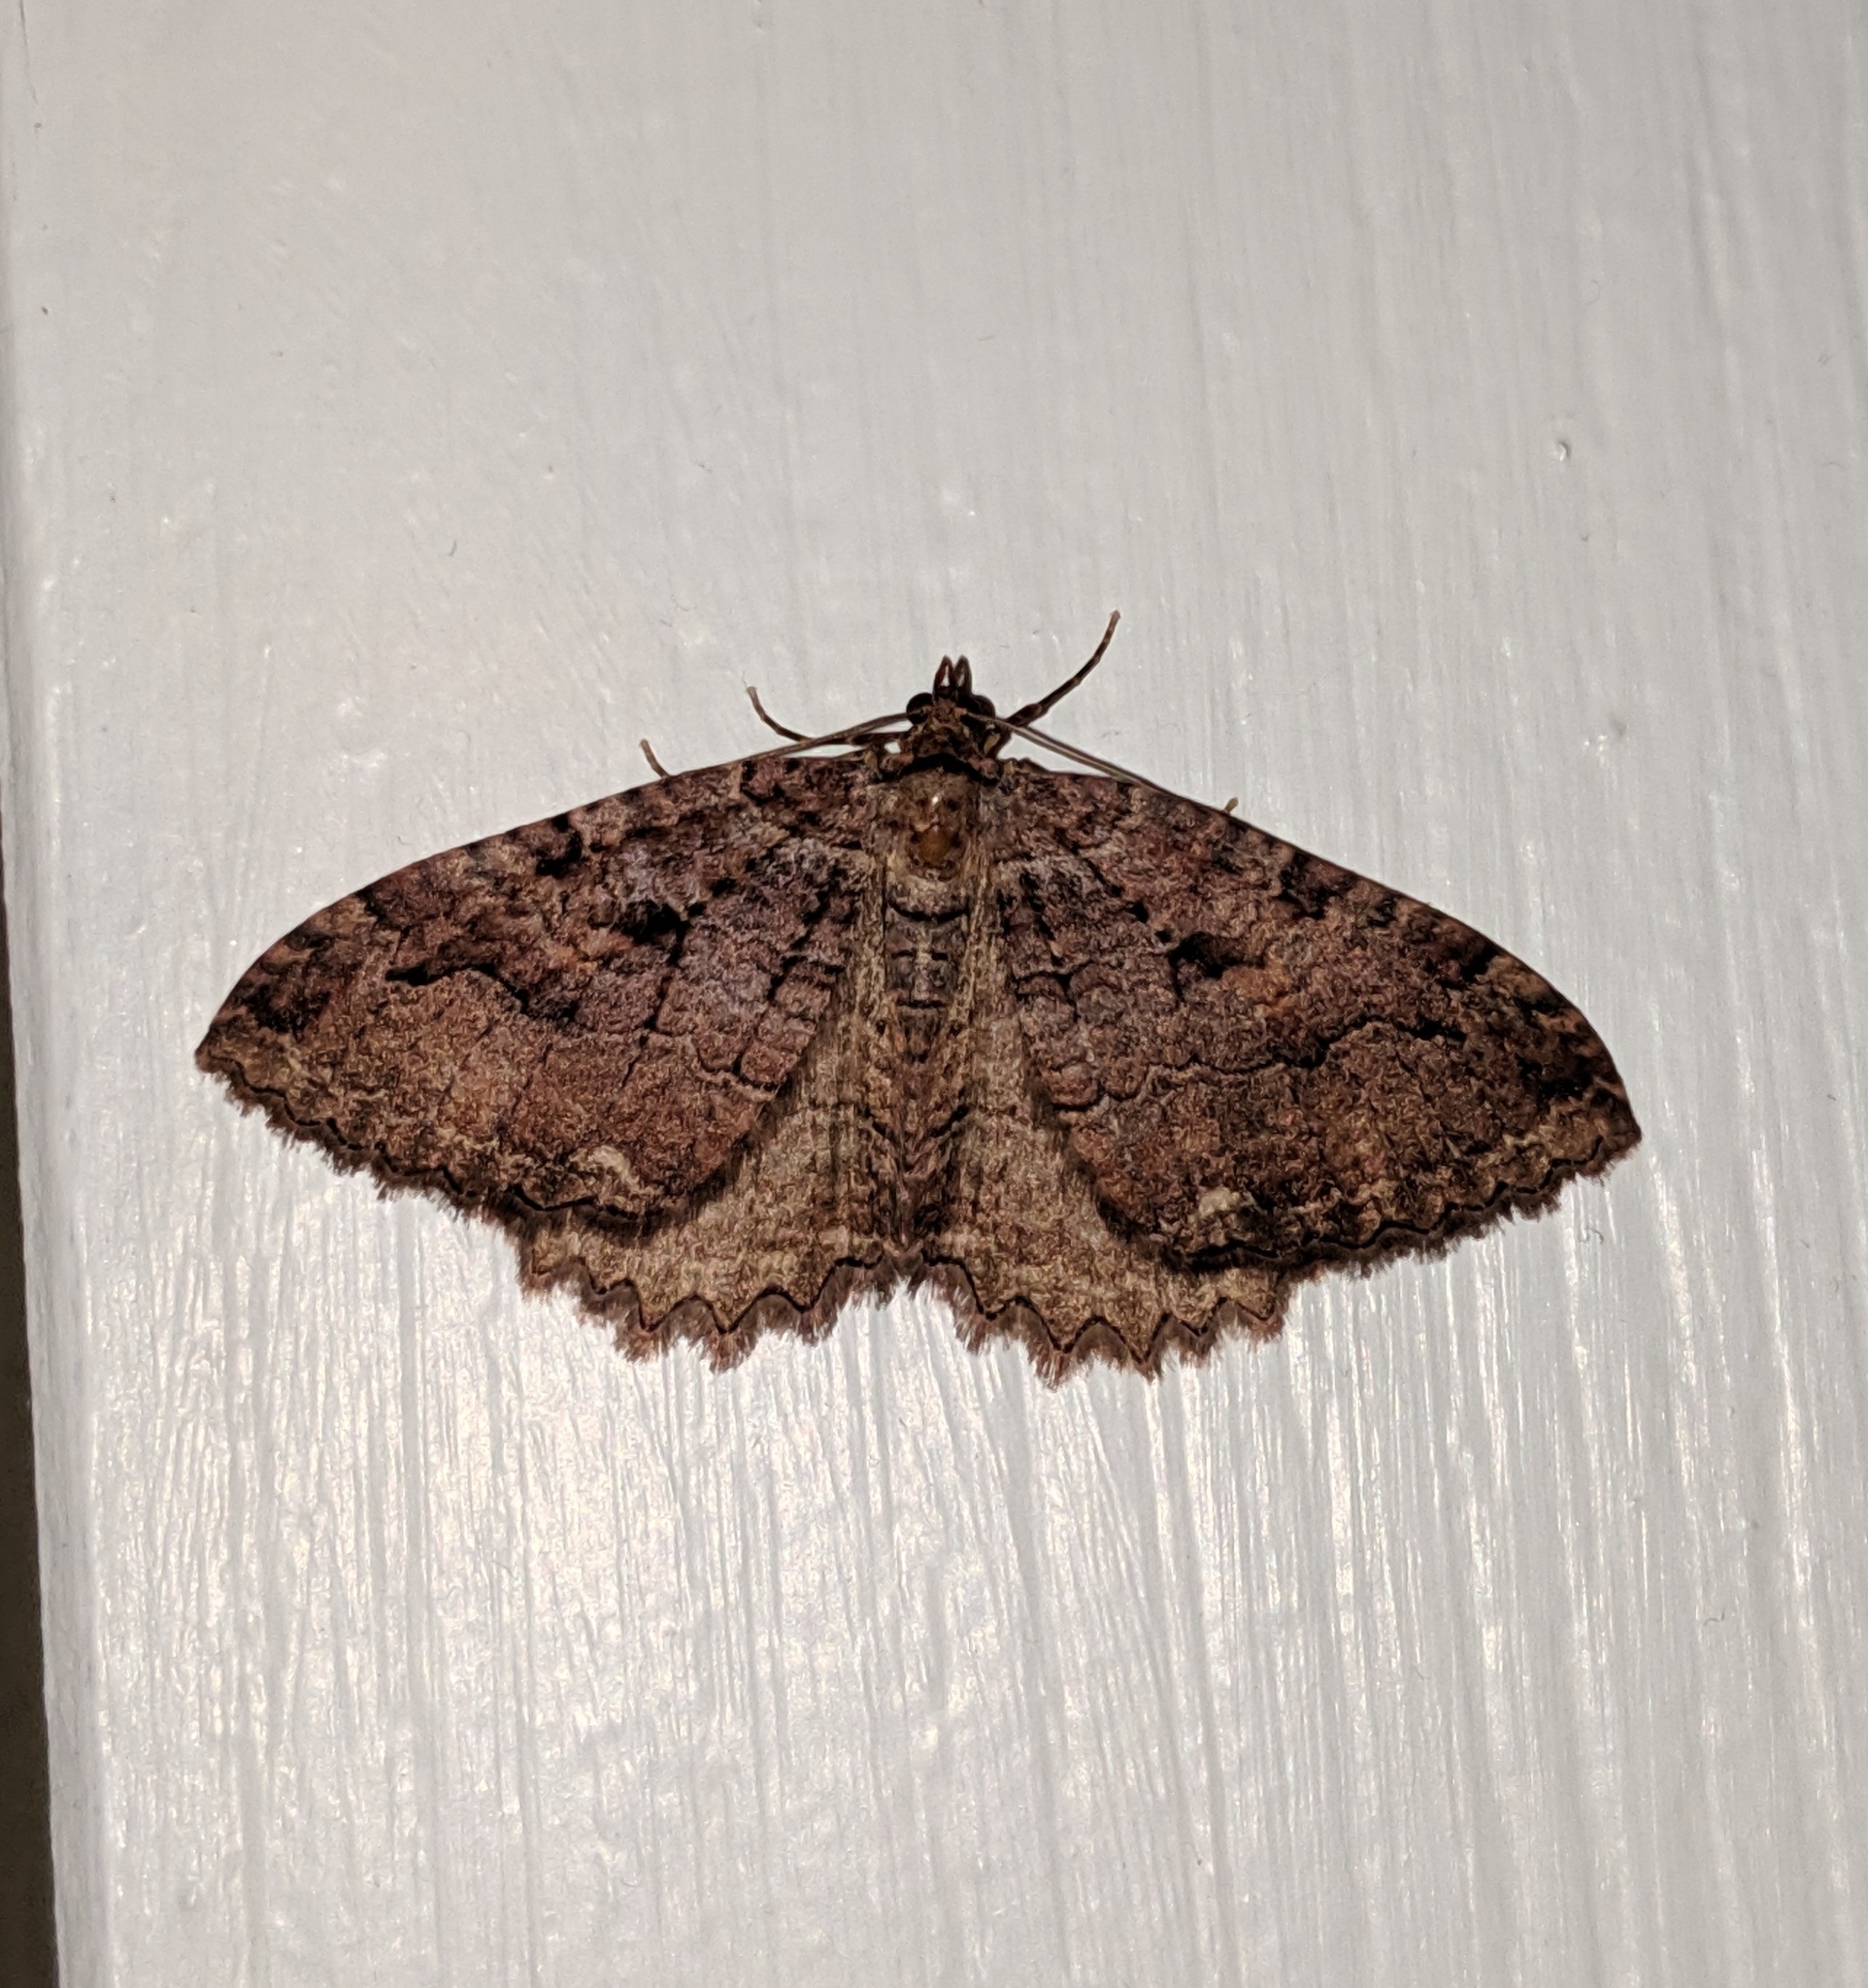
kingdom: Animalia
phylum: Arthropoda
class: Insecta
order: Lepidoptera
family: Geometridae
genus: Triphosa
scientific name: Triphosa haesitata
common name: Tissue moth
